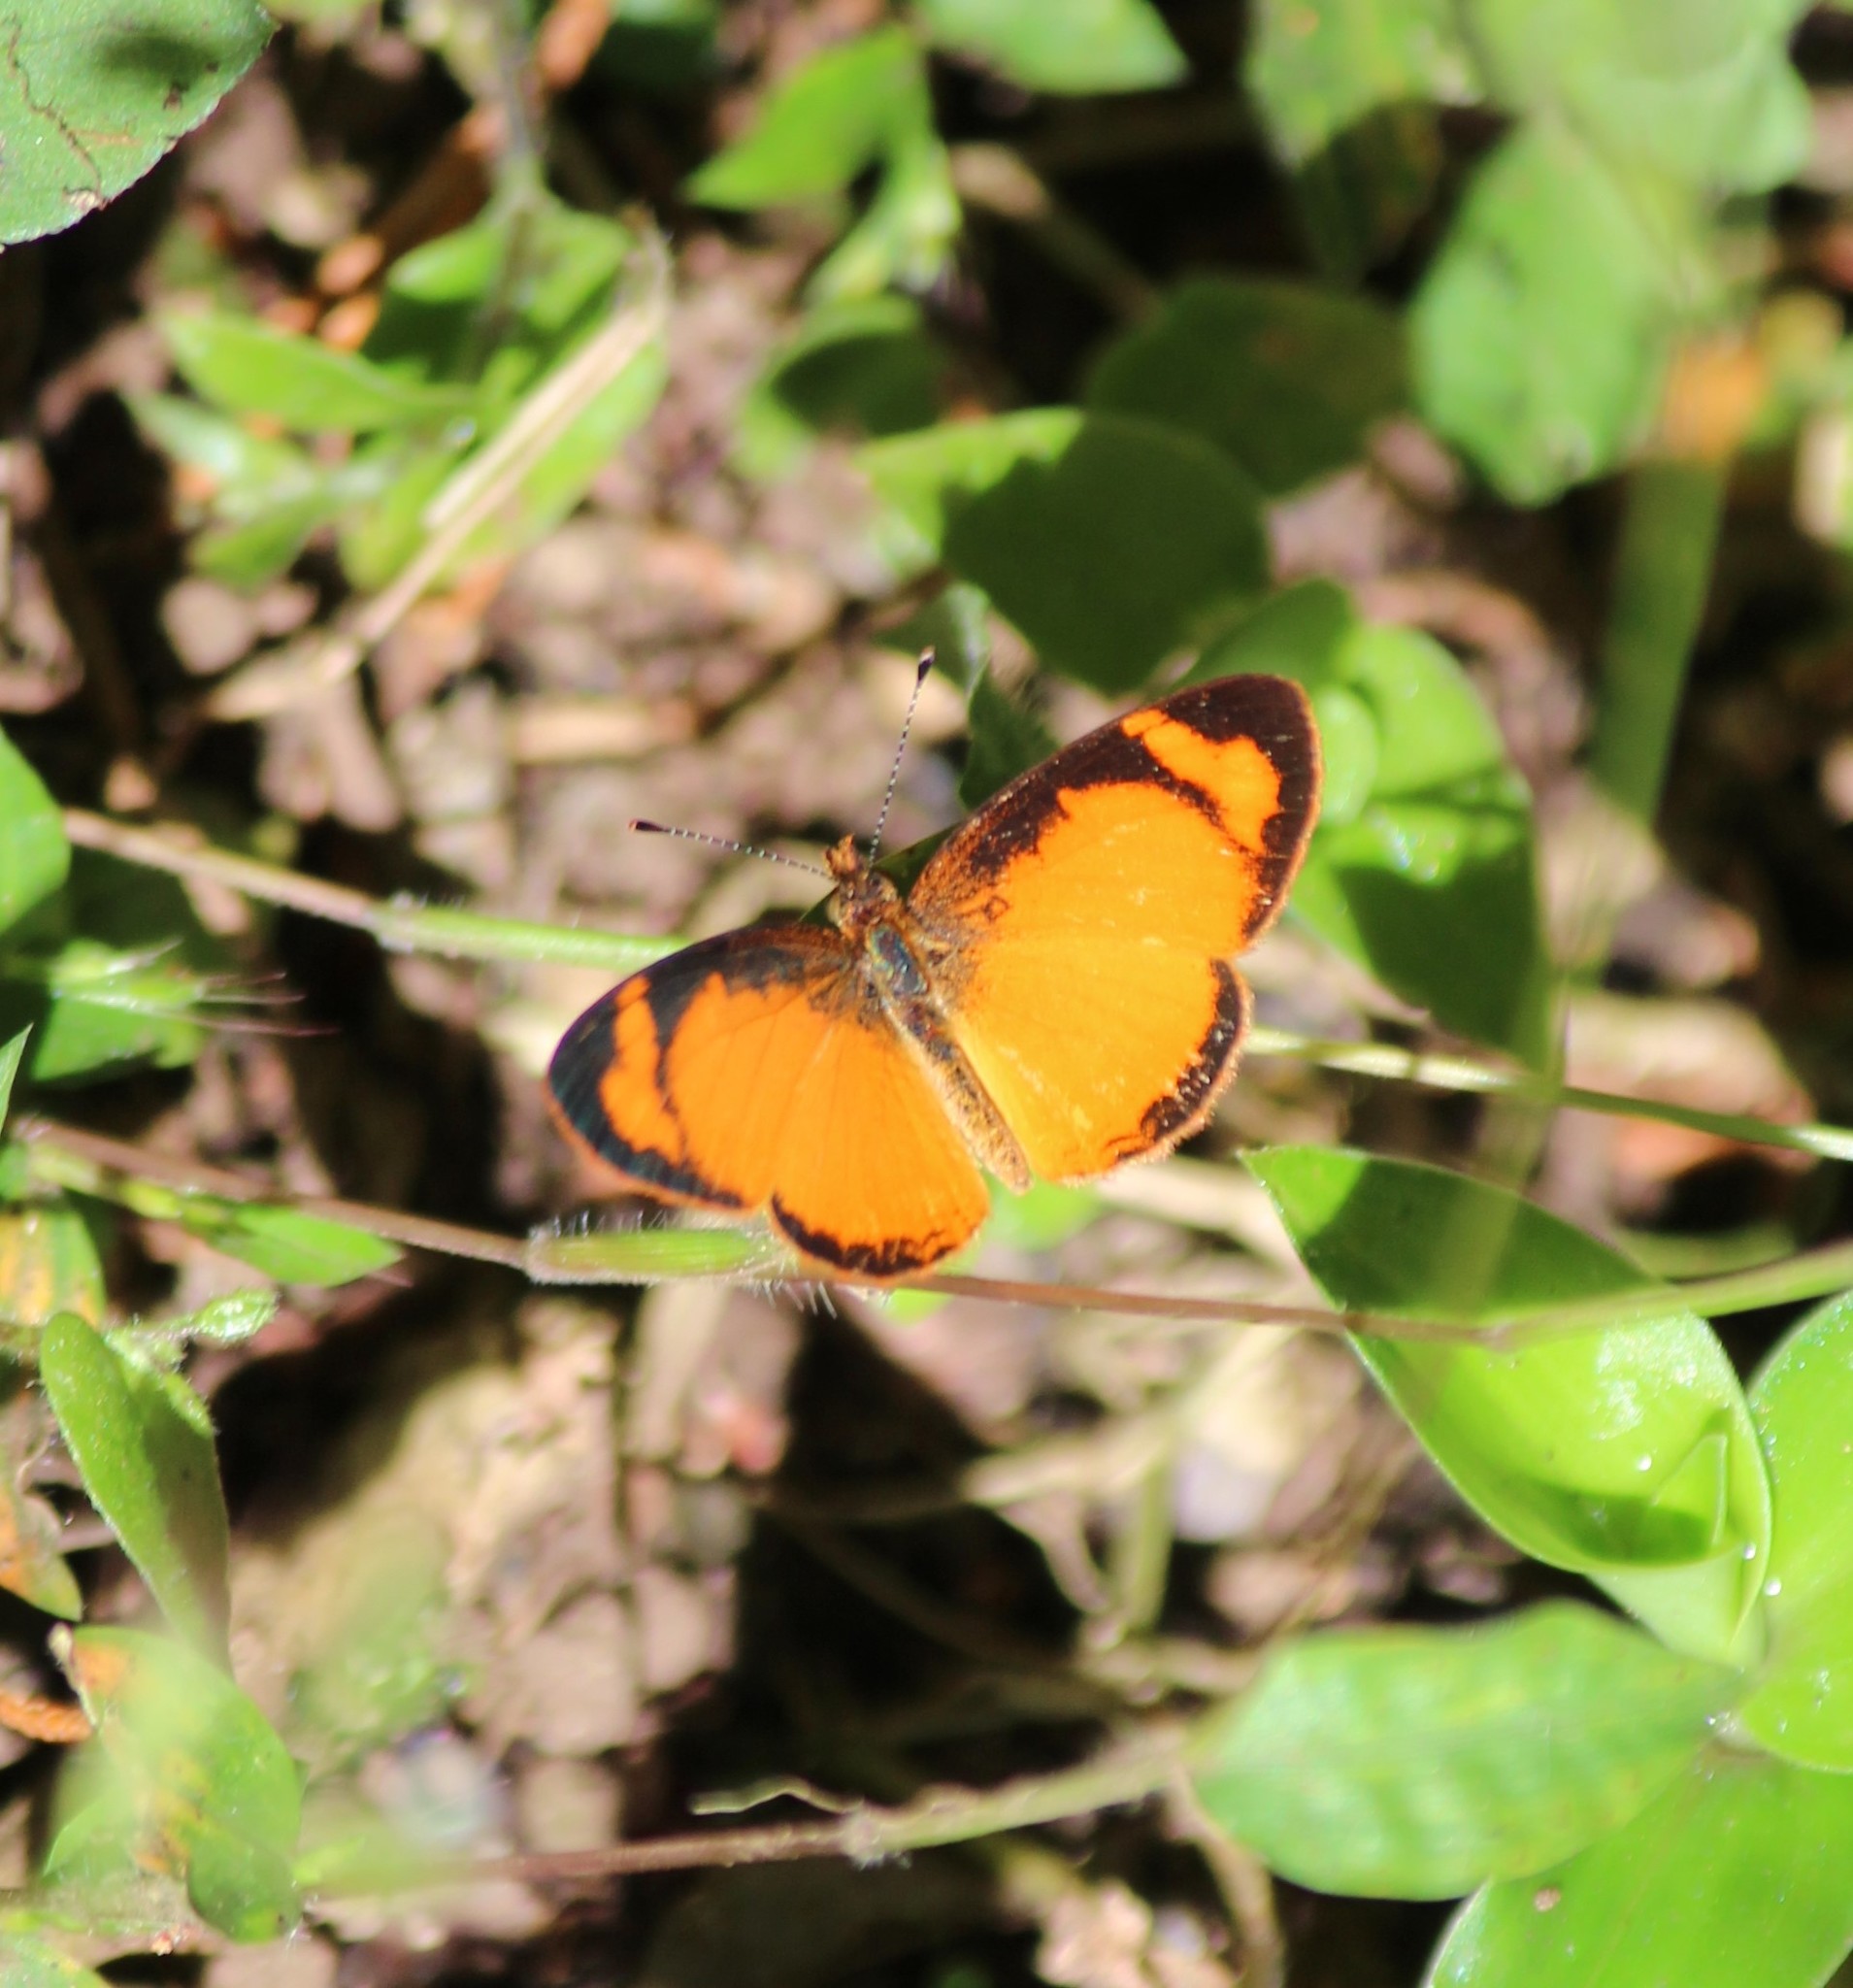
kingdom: Animalia
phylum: Arthropoda
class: Insecta
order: Lepidoptera
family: Nymphalidae
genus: Tegosa
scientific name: Tegosa anieta
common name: Black-bordered crescent
